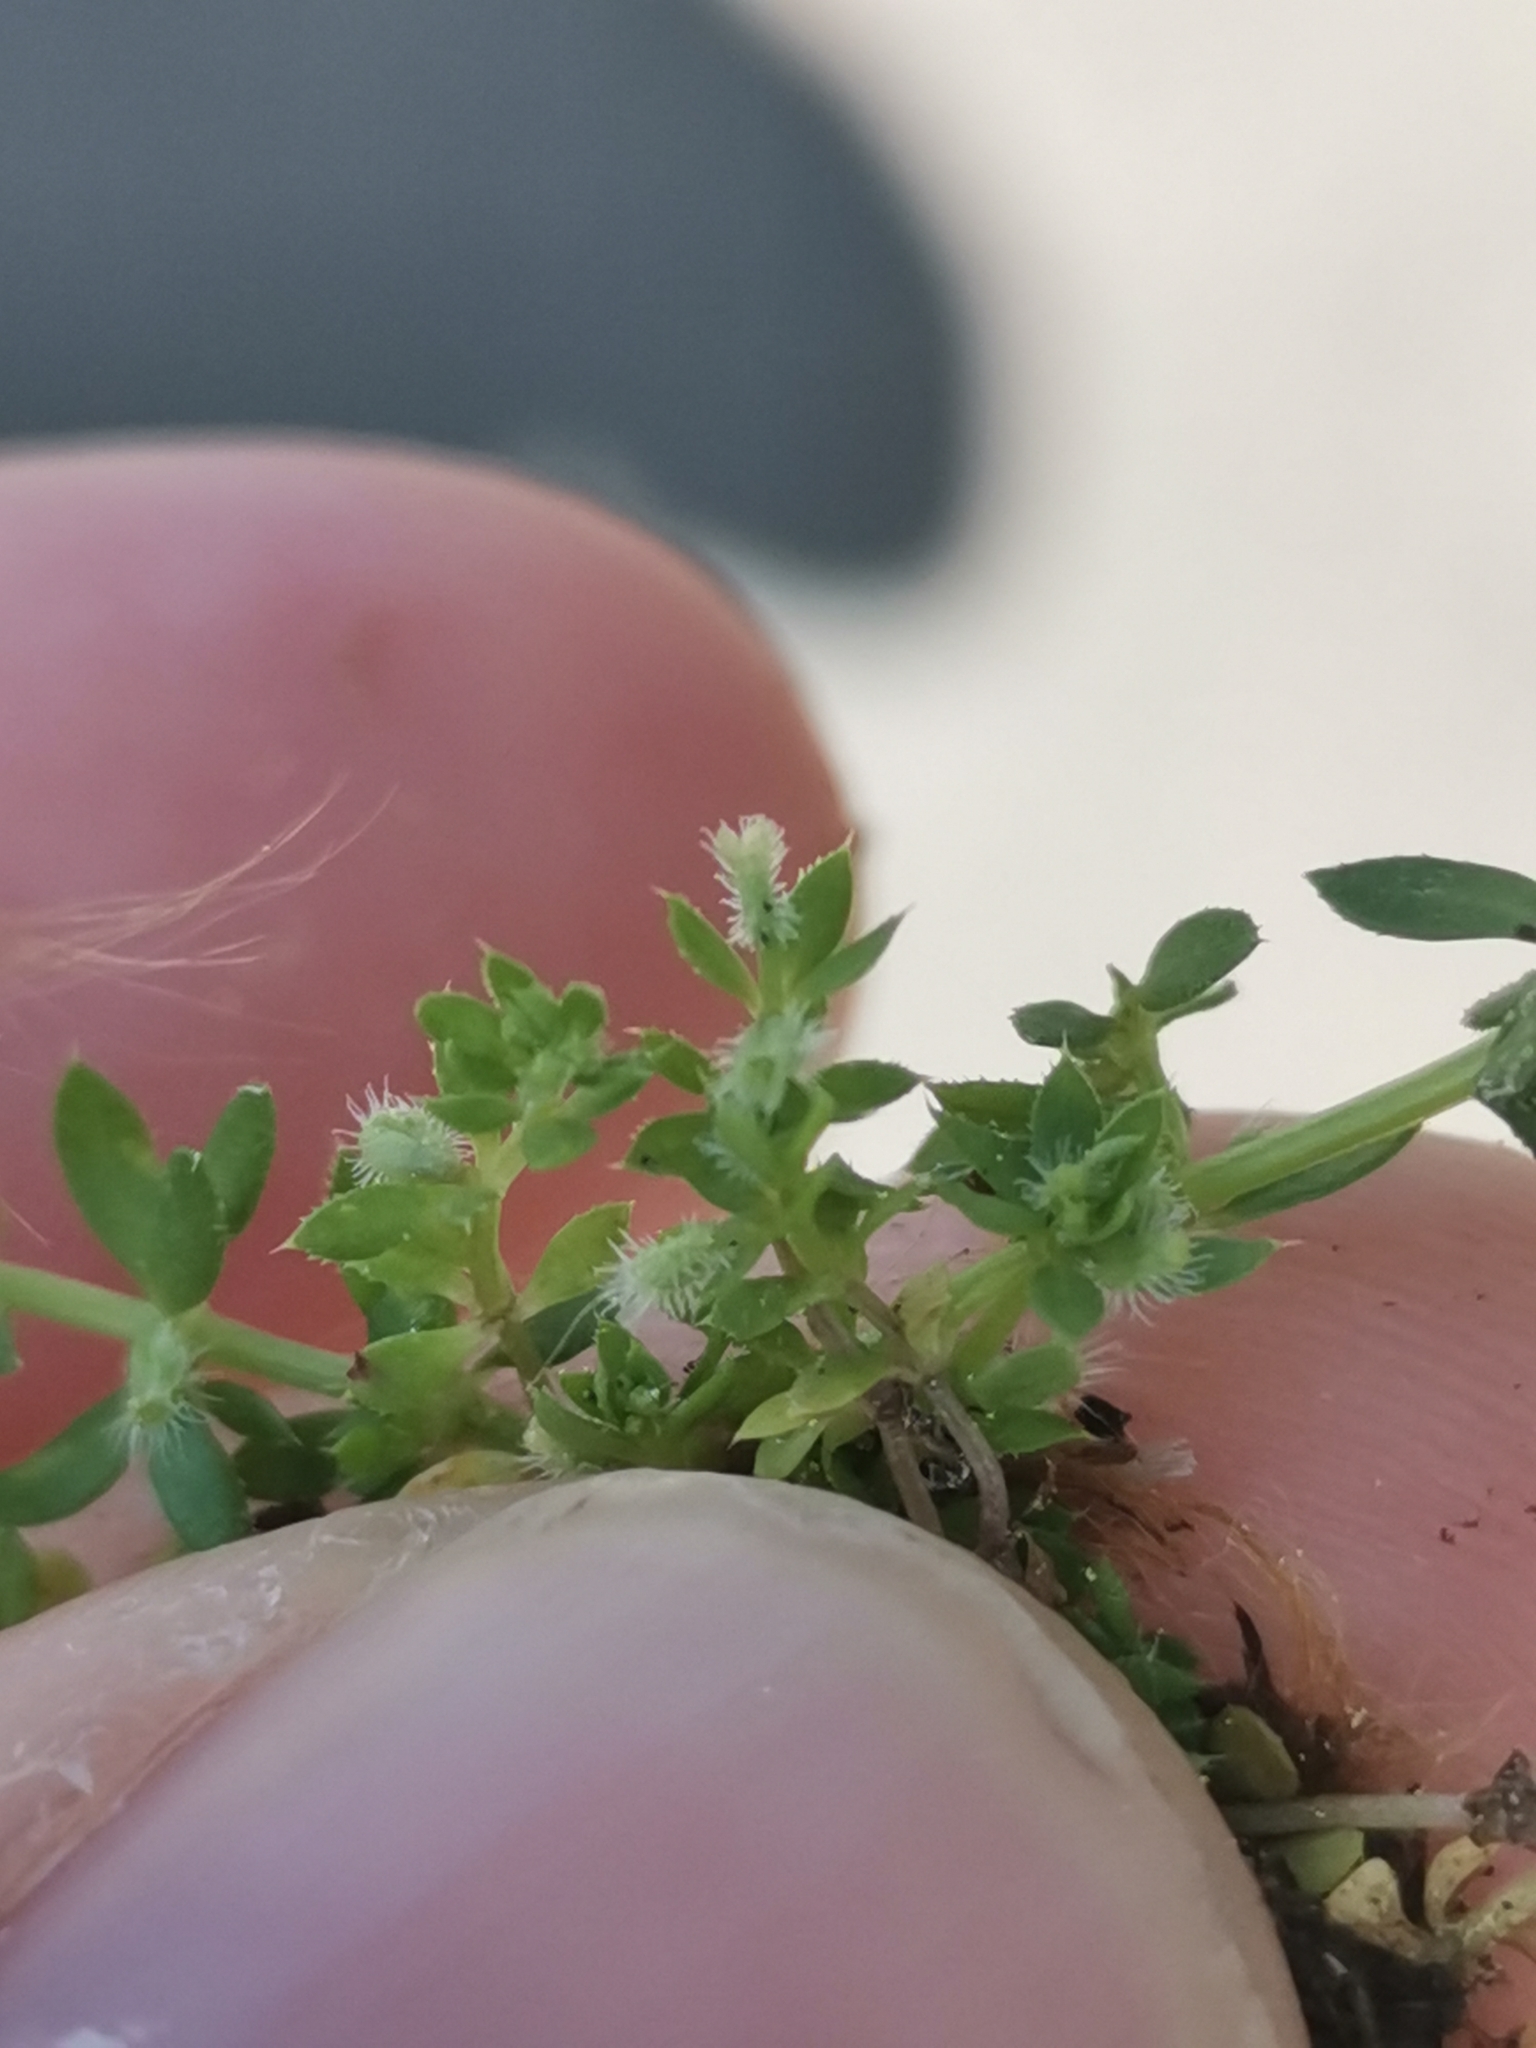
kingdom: Plantae
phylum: Tracheophyta
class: Magnoliopsida
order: Gentianales
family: Rubiaceae
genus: Galium
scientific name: Galium murale
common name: Yellow wall bedstraw
